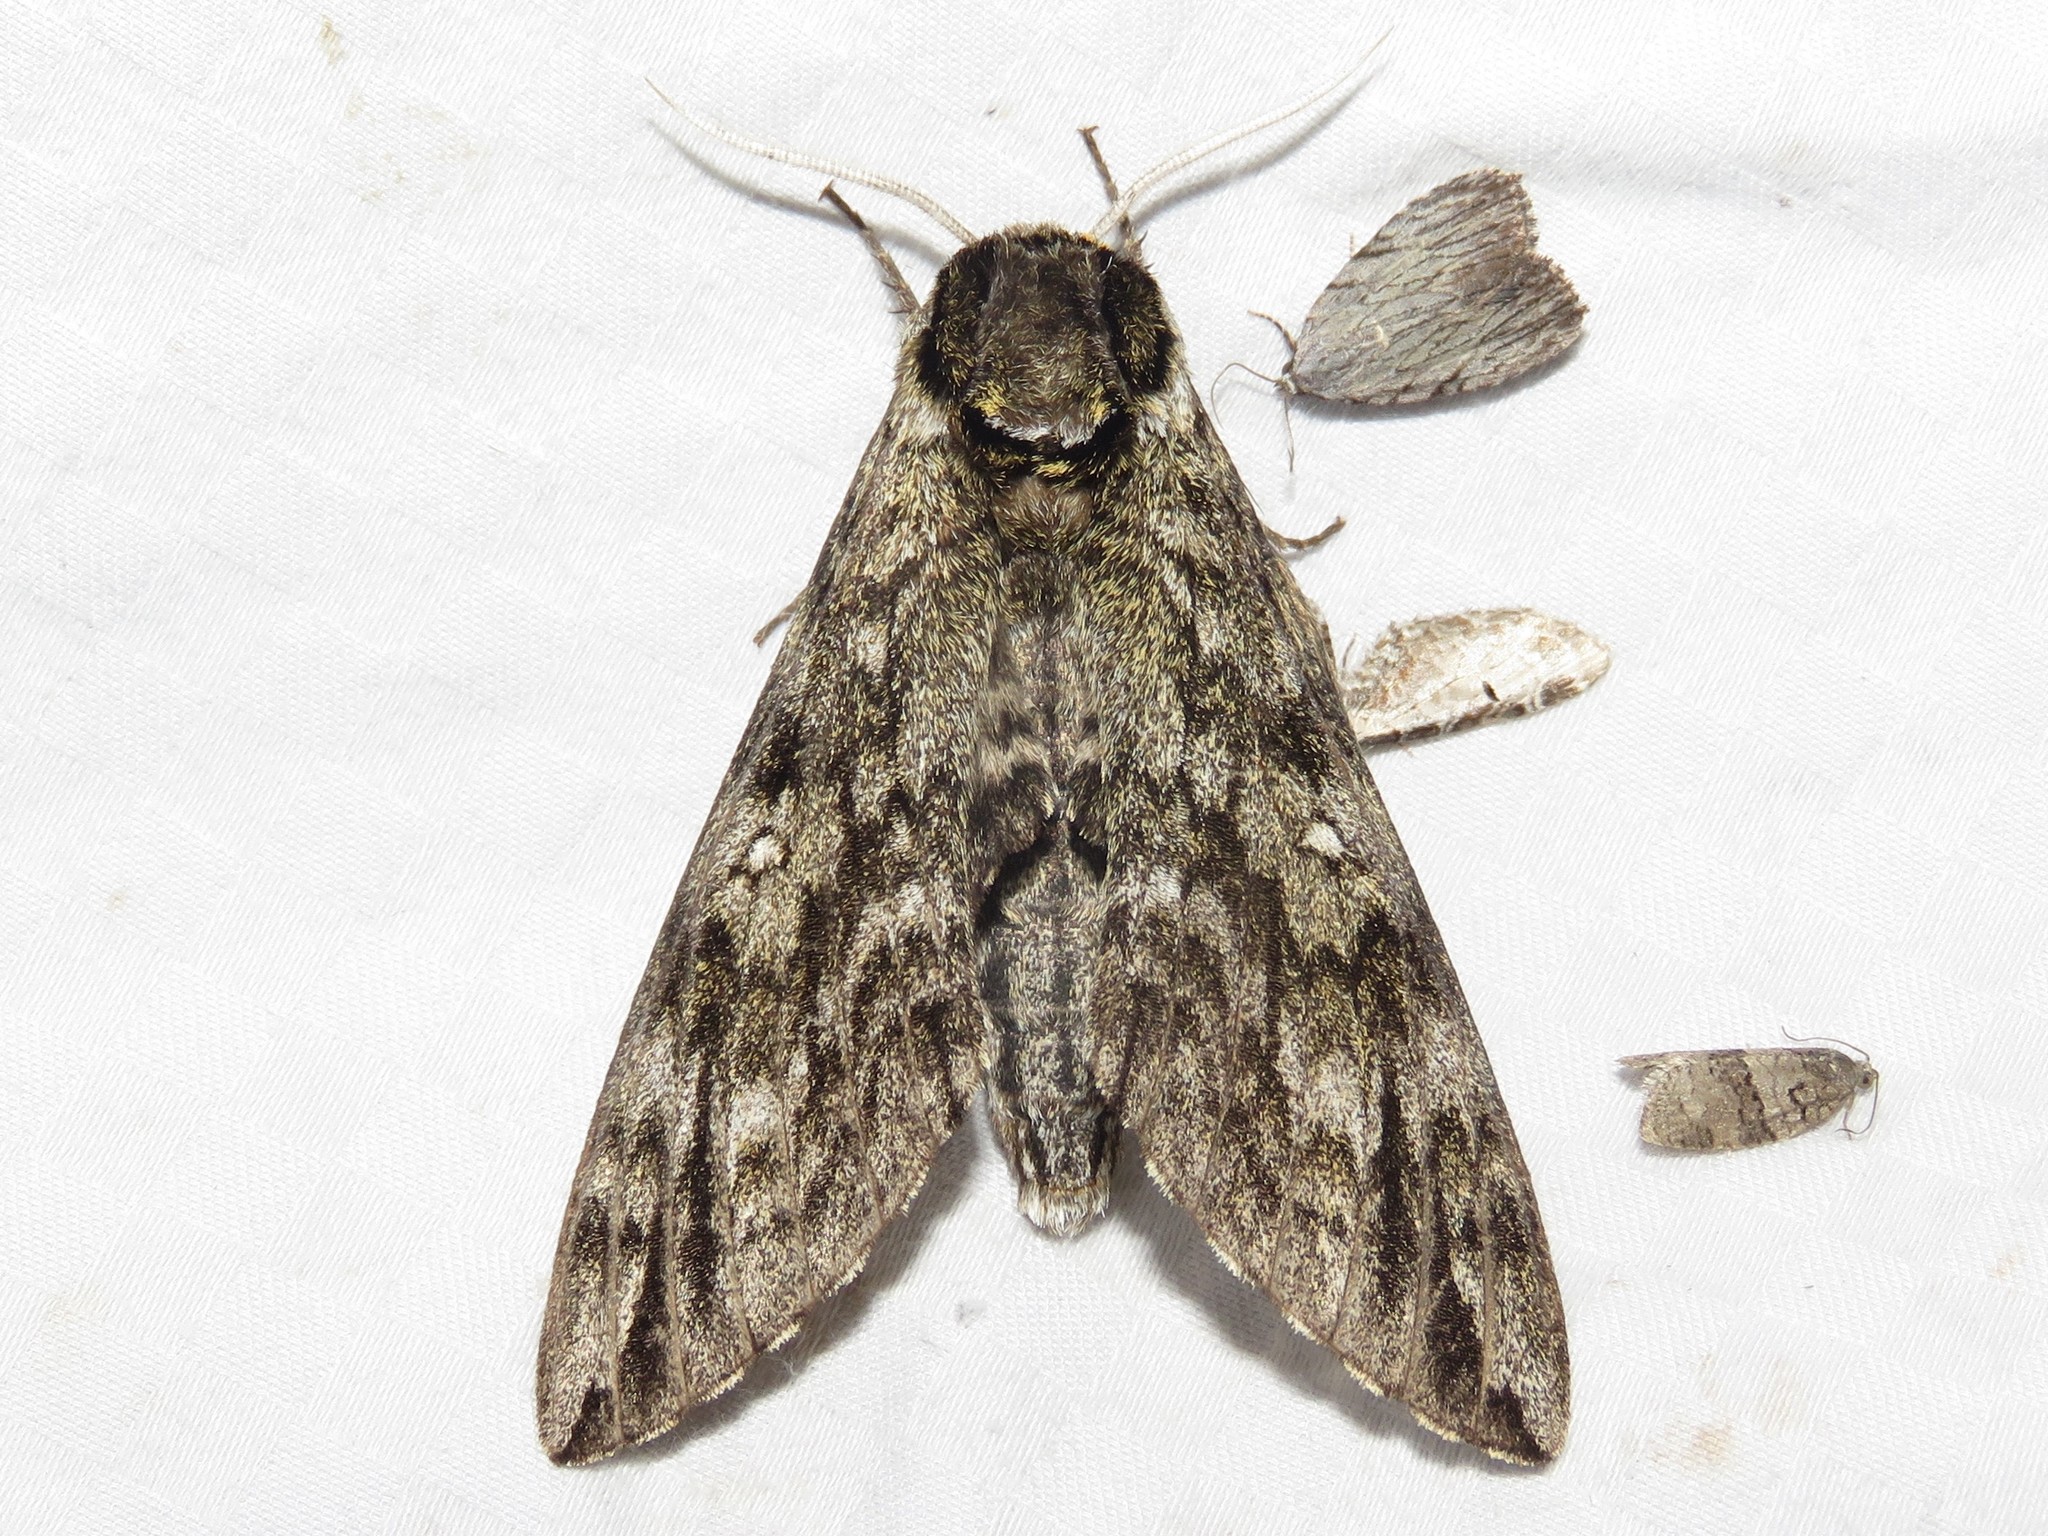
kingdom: Animalia
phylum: Arthropoda
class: Insecta
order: Lepidoptera
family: Sphingidae
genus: Ceratomia
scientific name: Ceratomia undulosa
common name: Waved sphinx
